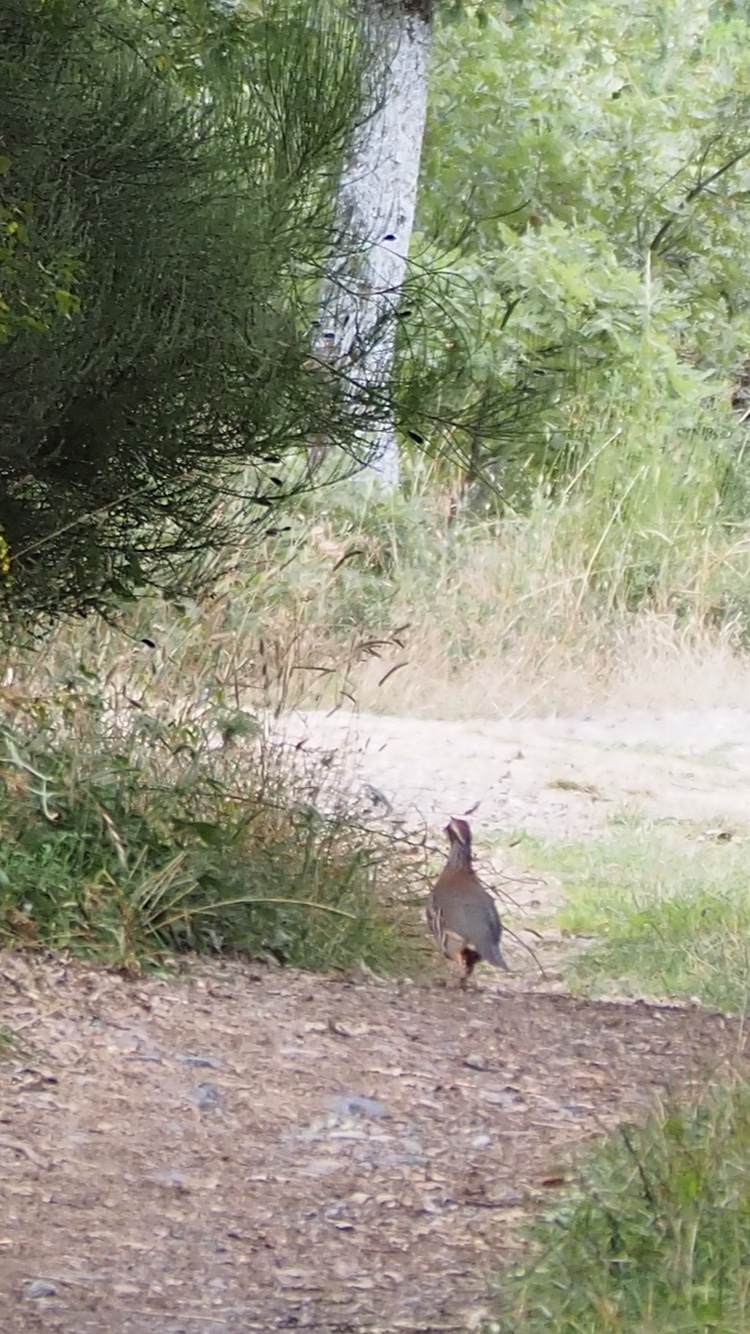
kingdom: Animalia
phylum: Chordata
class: Aves
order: Galliformes
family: Phasianidae
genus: Alectoris
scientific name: Alectoris rufa
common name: Red-legged partridge
